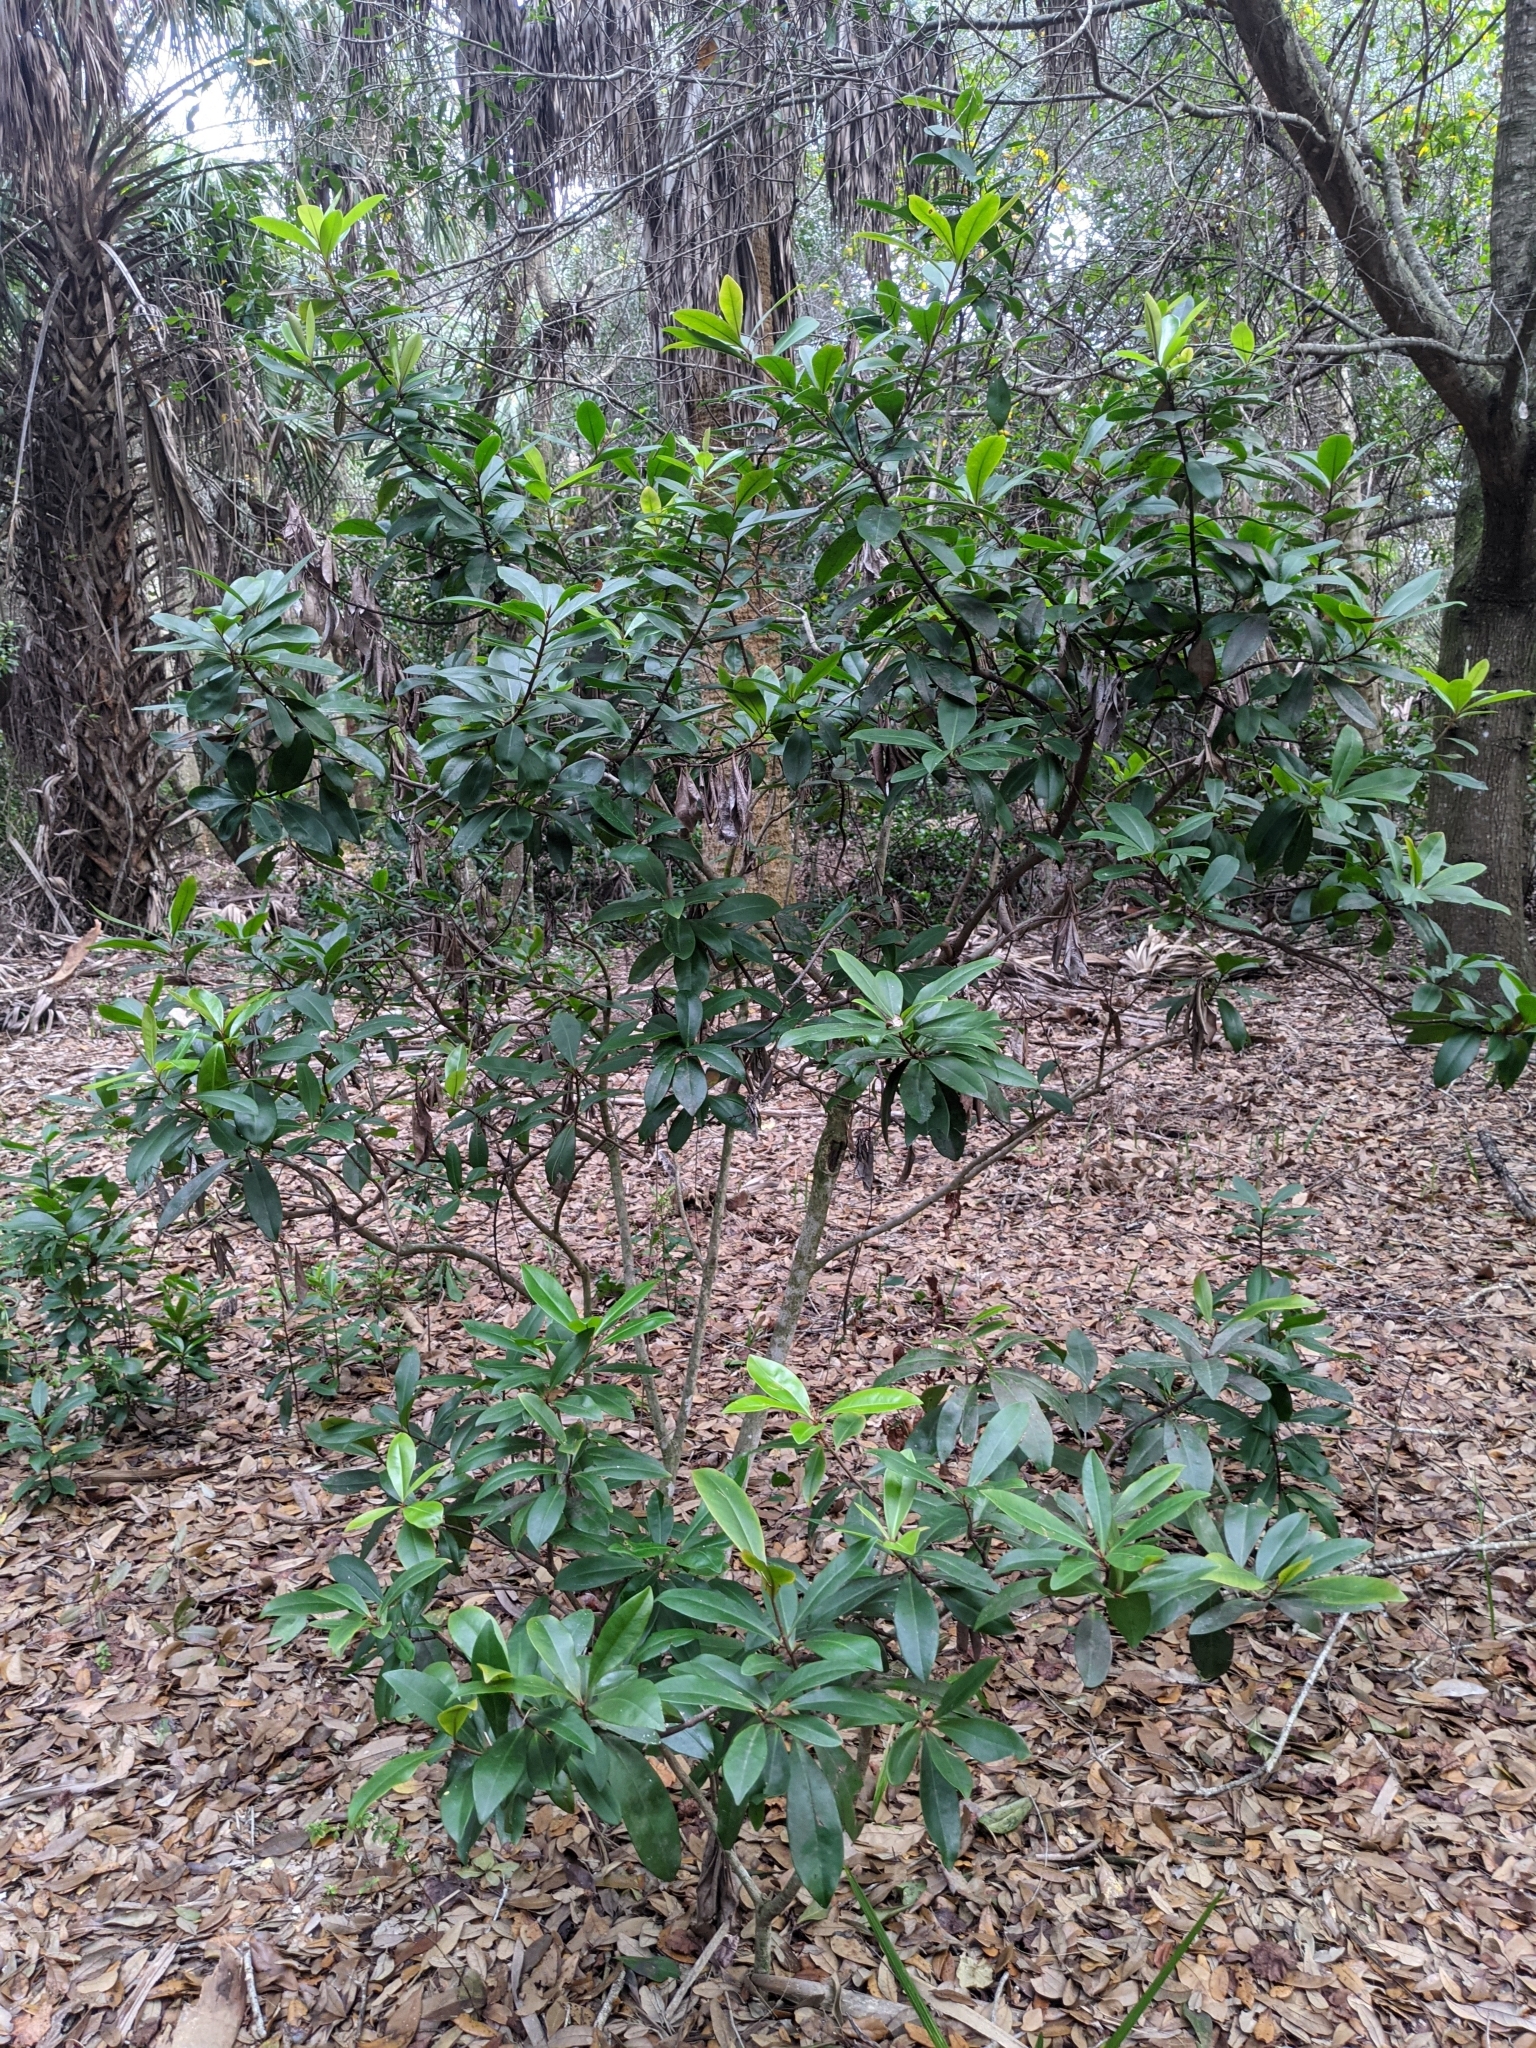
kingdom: Plantae
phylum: Tracheophyta
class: Magnoliopsida
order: Ericales
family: Primulaceae
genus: Ardisia
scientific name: Ardisia escallonioides
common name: Island marlberry
